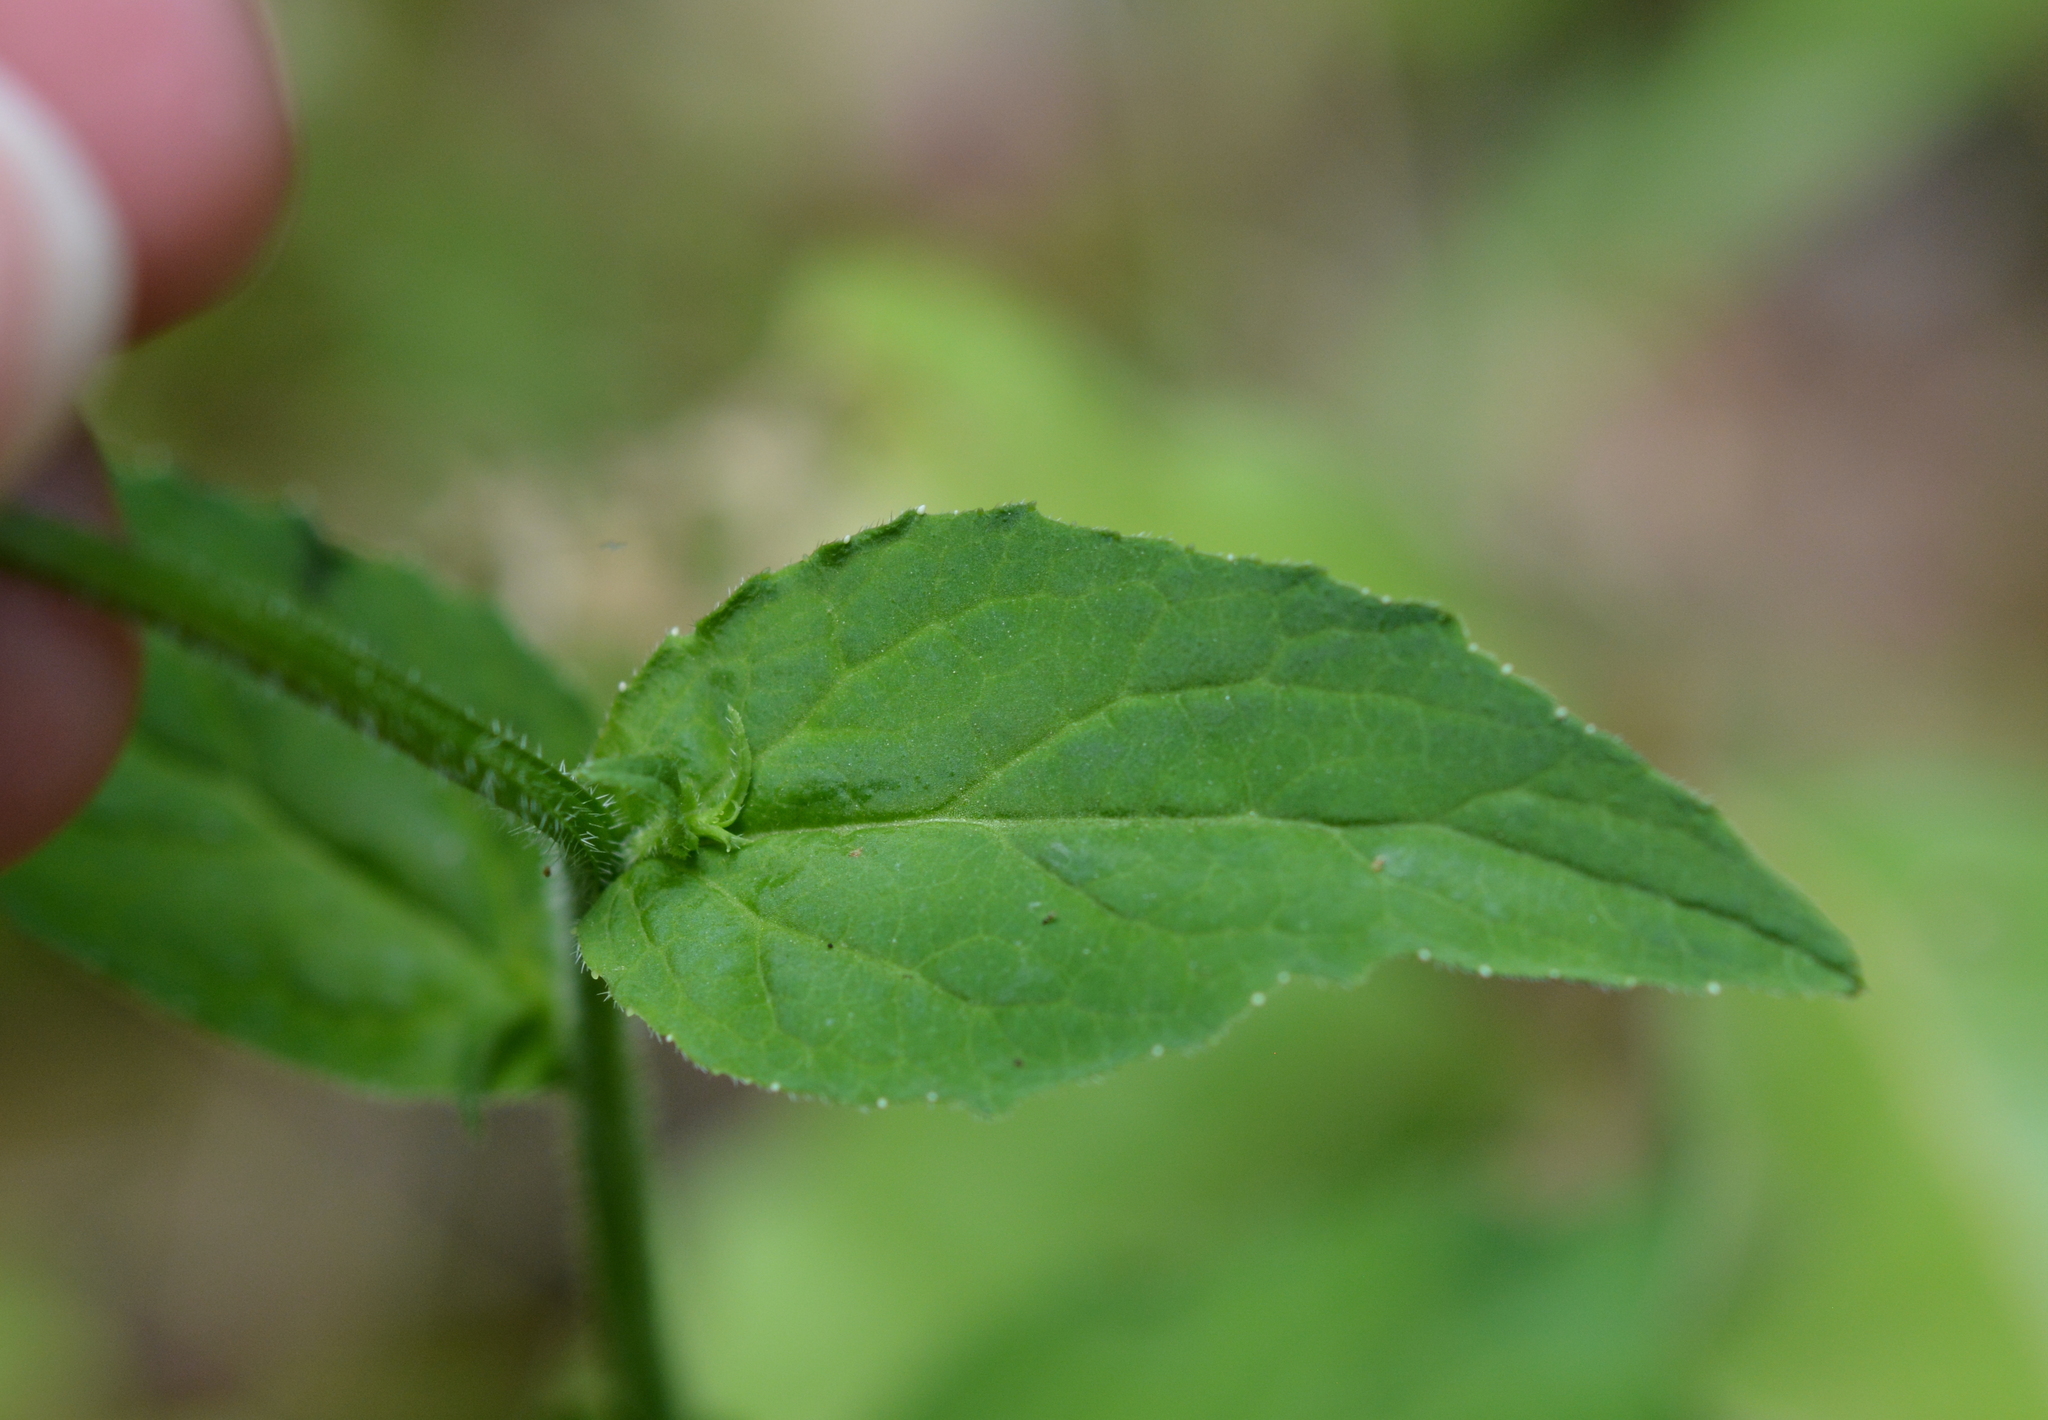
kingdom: Plantae
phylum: Tracheophyta
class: Magnoliopsida
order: Asterales
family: Campanulaceae
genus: Lobelia
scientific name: Lobelia inflata
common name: Indian tobacco
